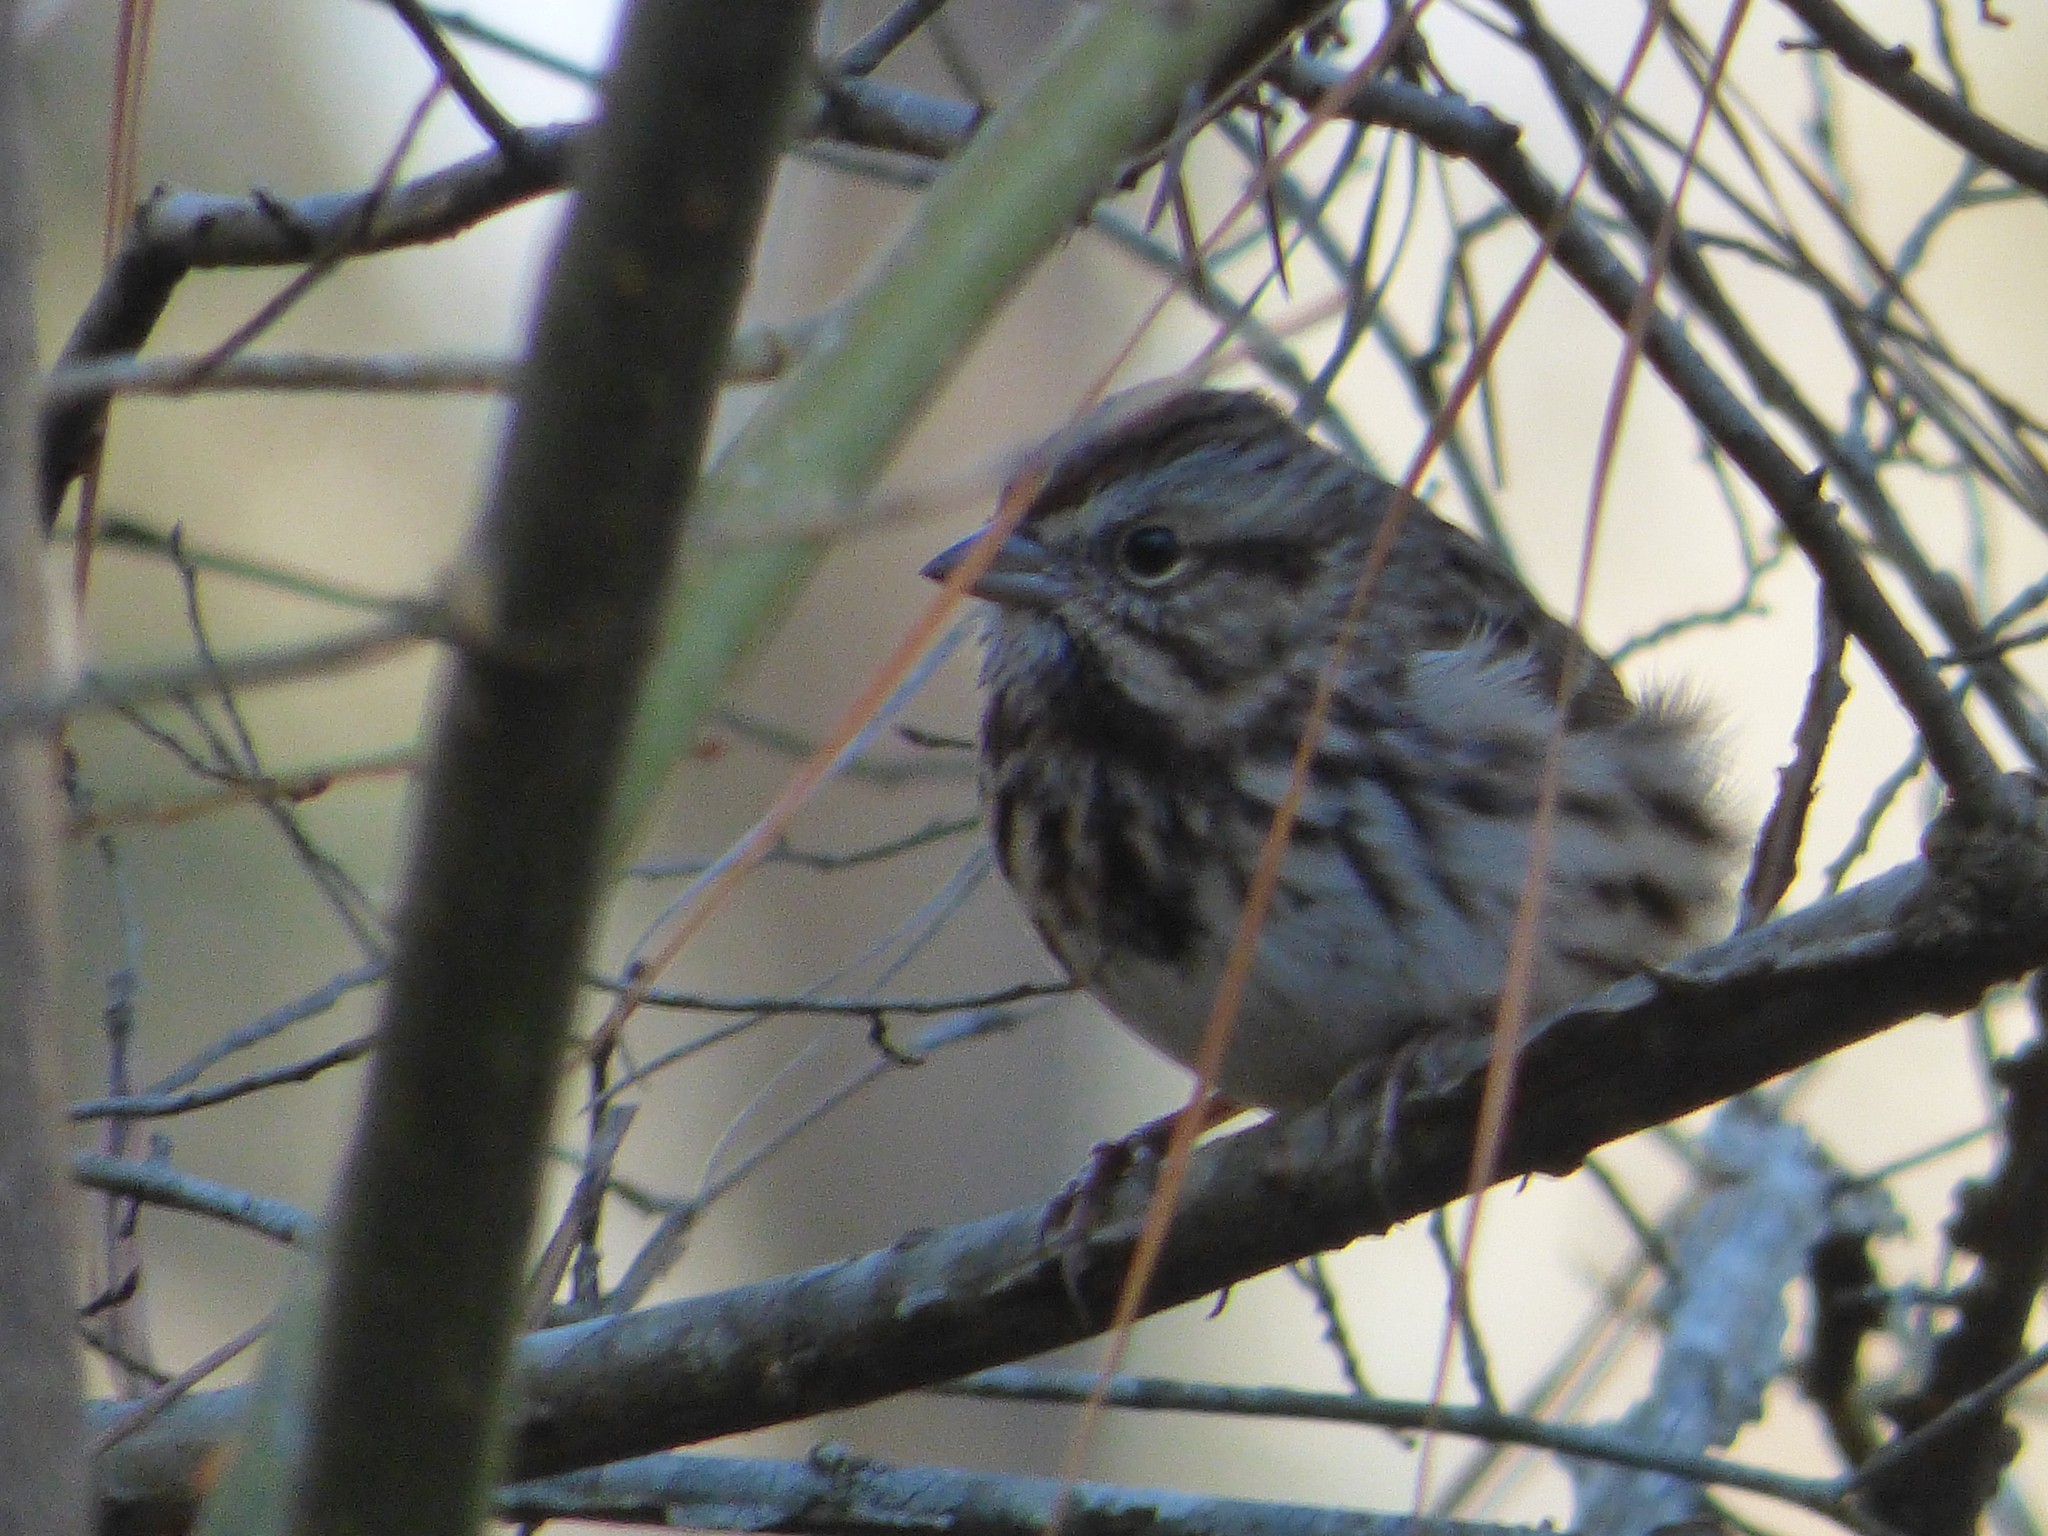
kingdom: Animalia
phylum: Chordata
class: Aves
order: Passeriformes
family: Passerellidae
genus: Melospiza
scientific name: Melospiza melodia
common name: Song sparrow
